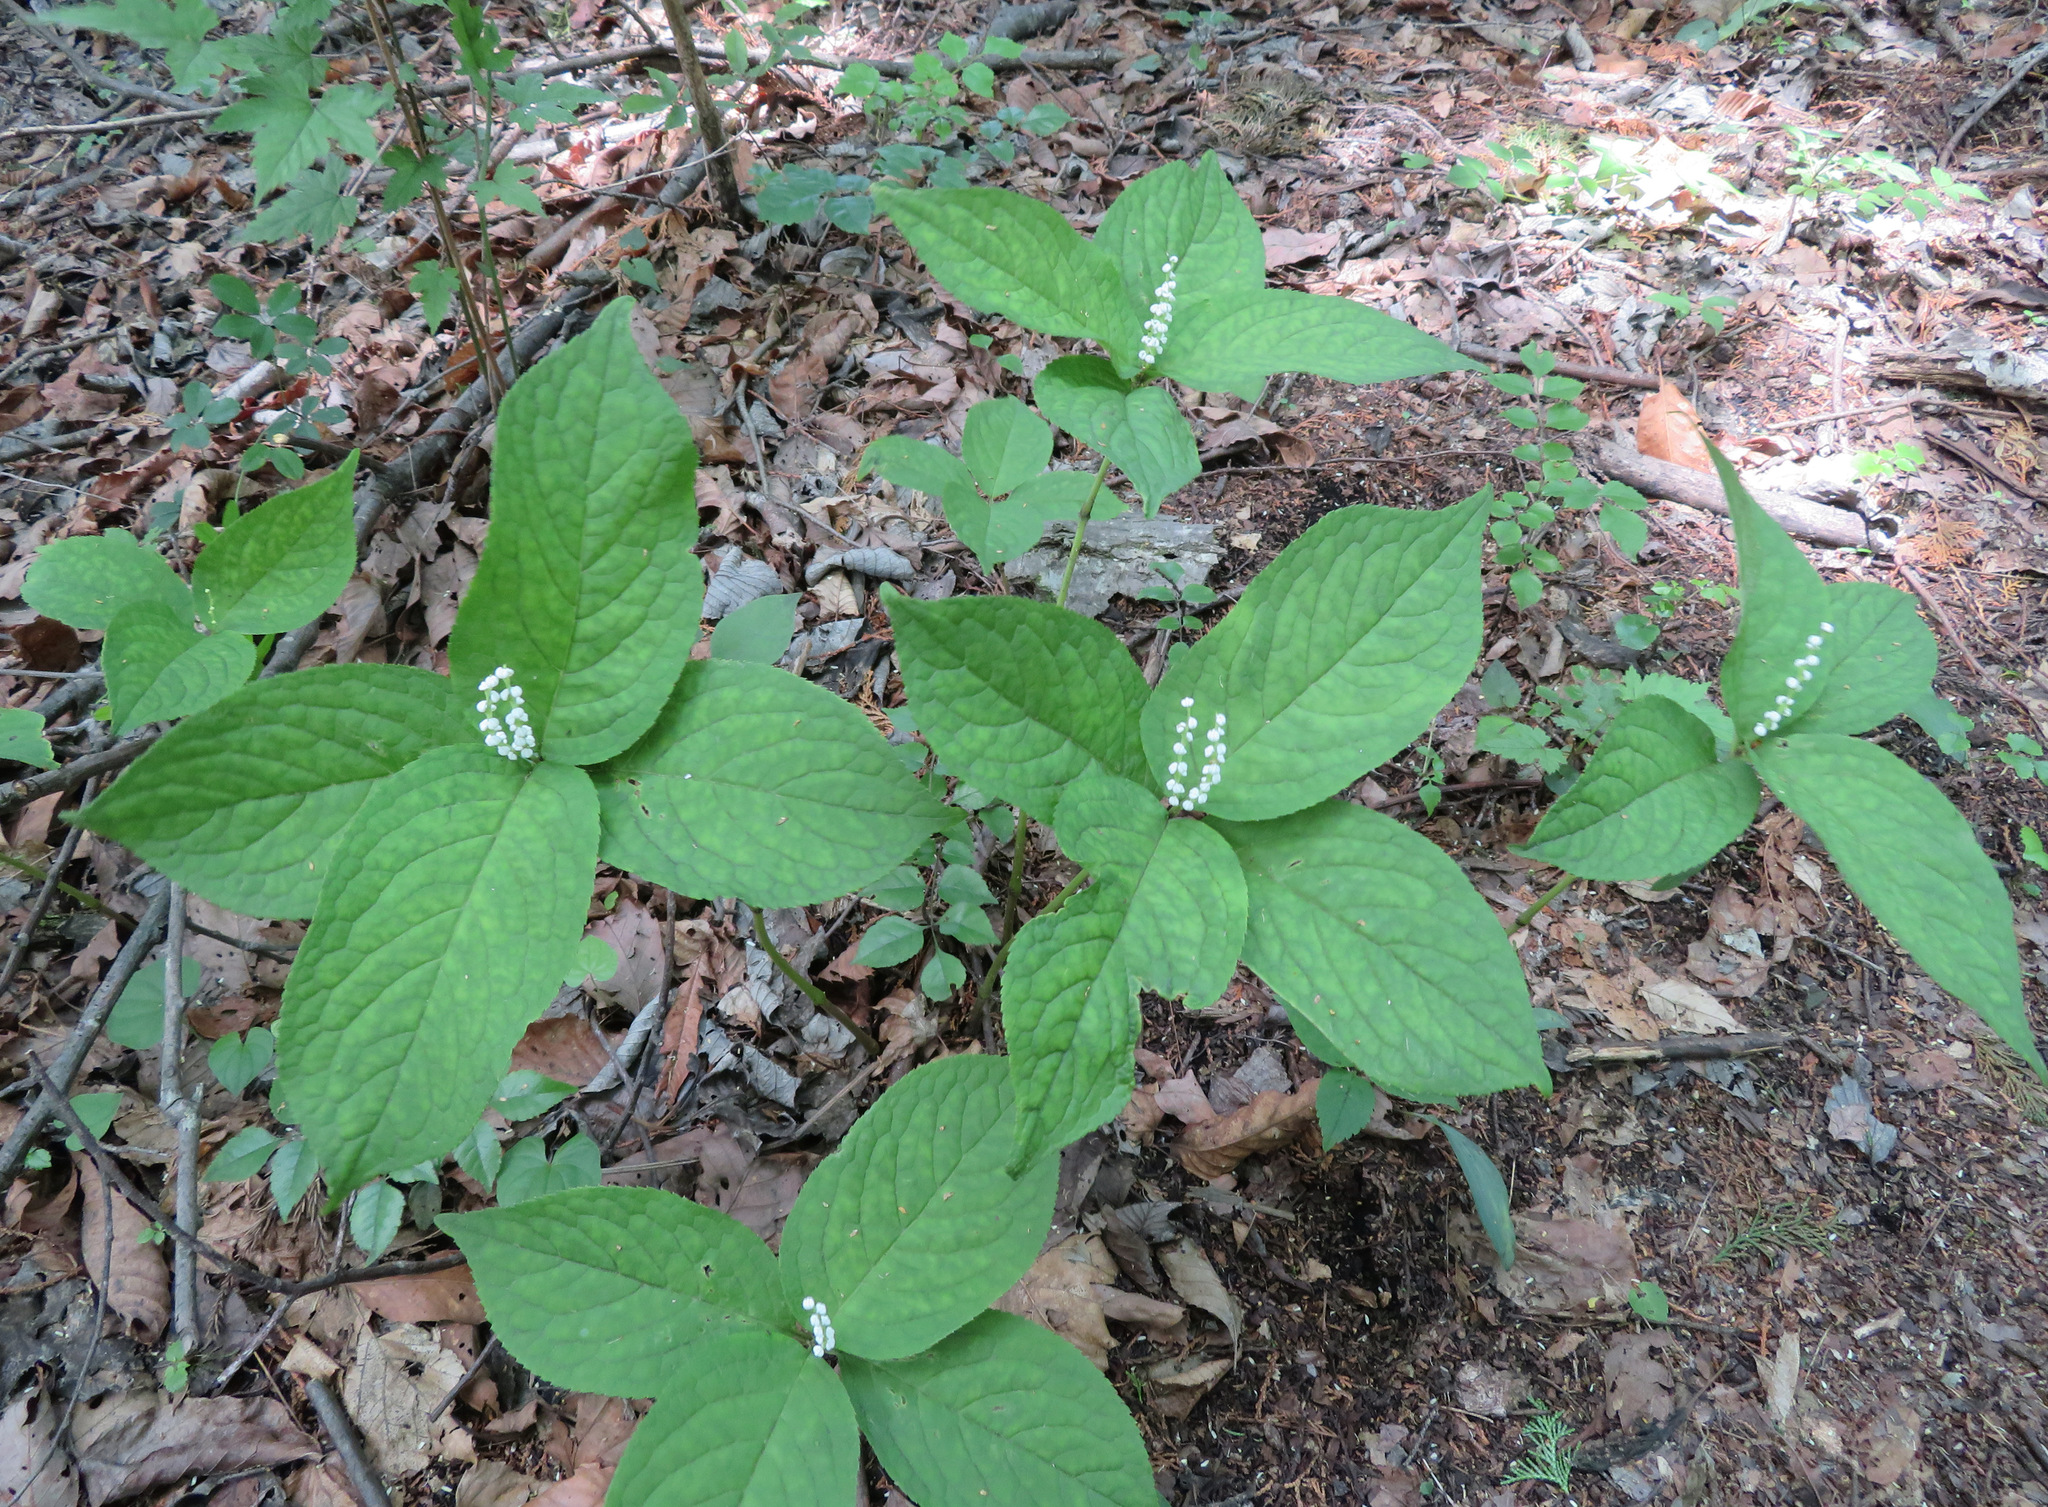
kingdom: Plantae
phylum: Tracheophyta
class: Magnoliopsida
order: Chloranthales
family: Chloranthaceae
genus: Chloranthus
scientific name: Chloranthus serratus
